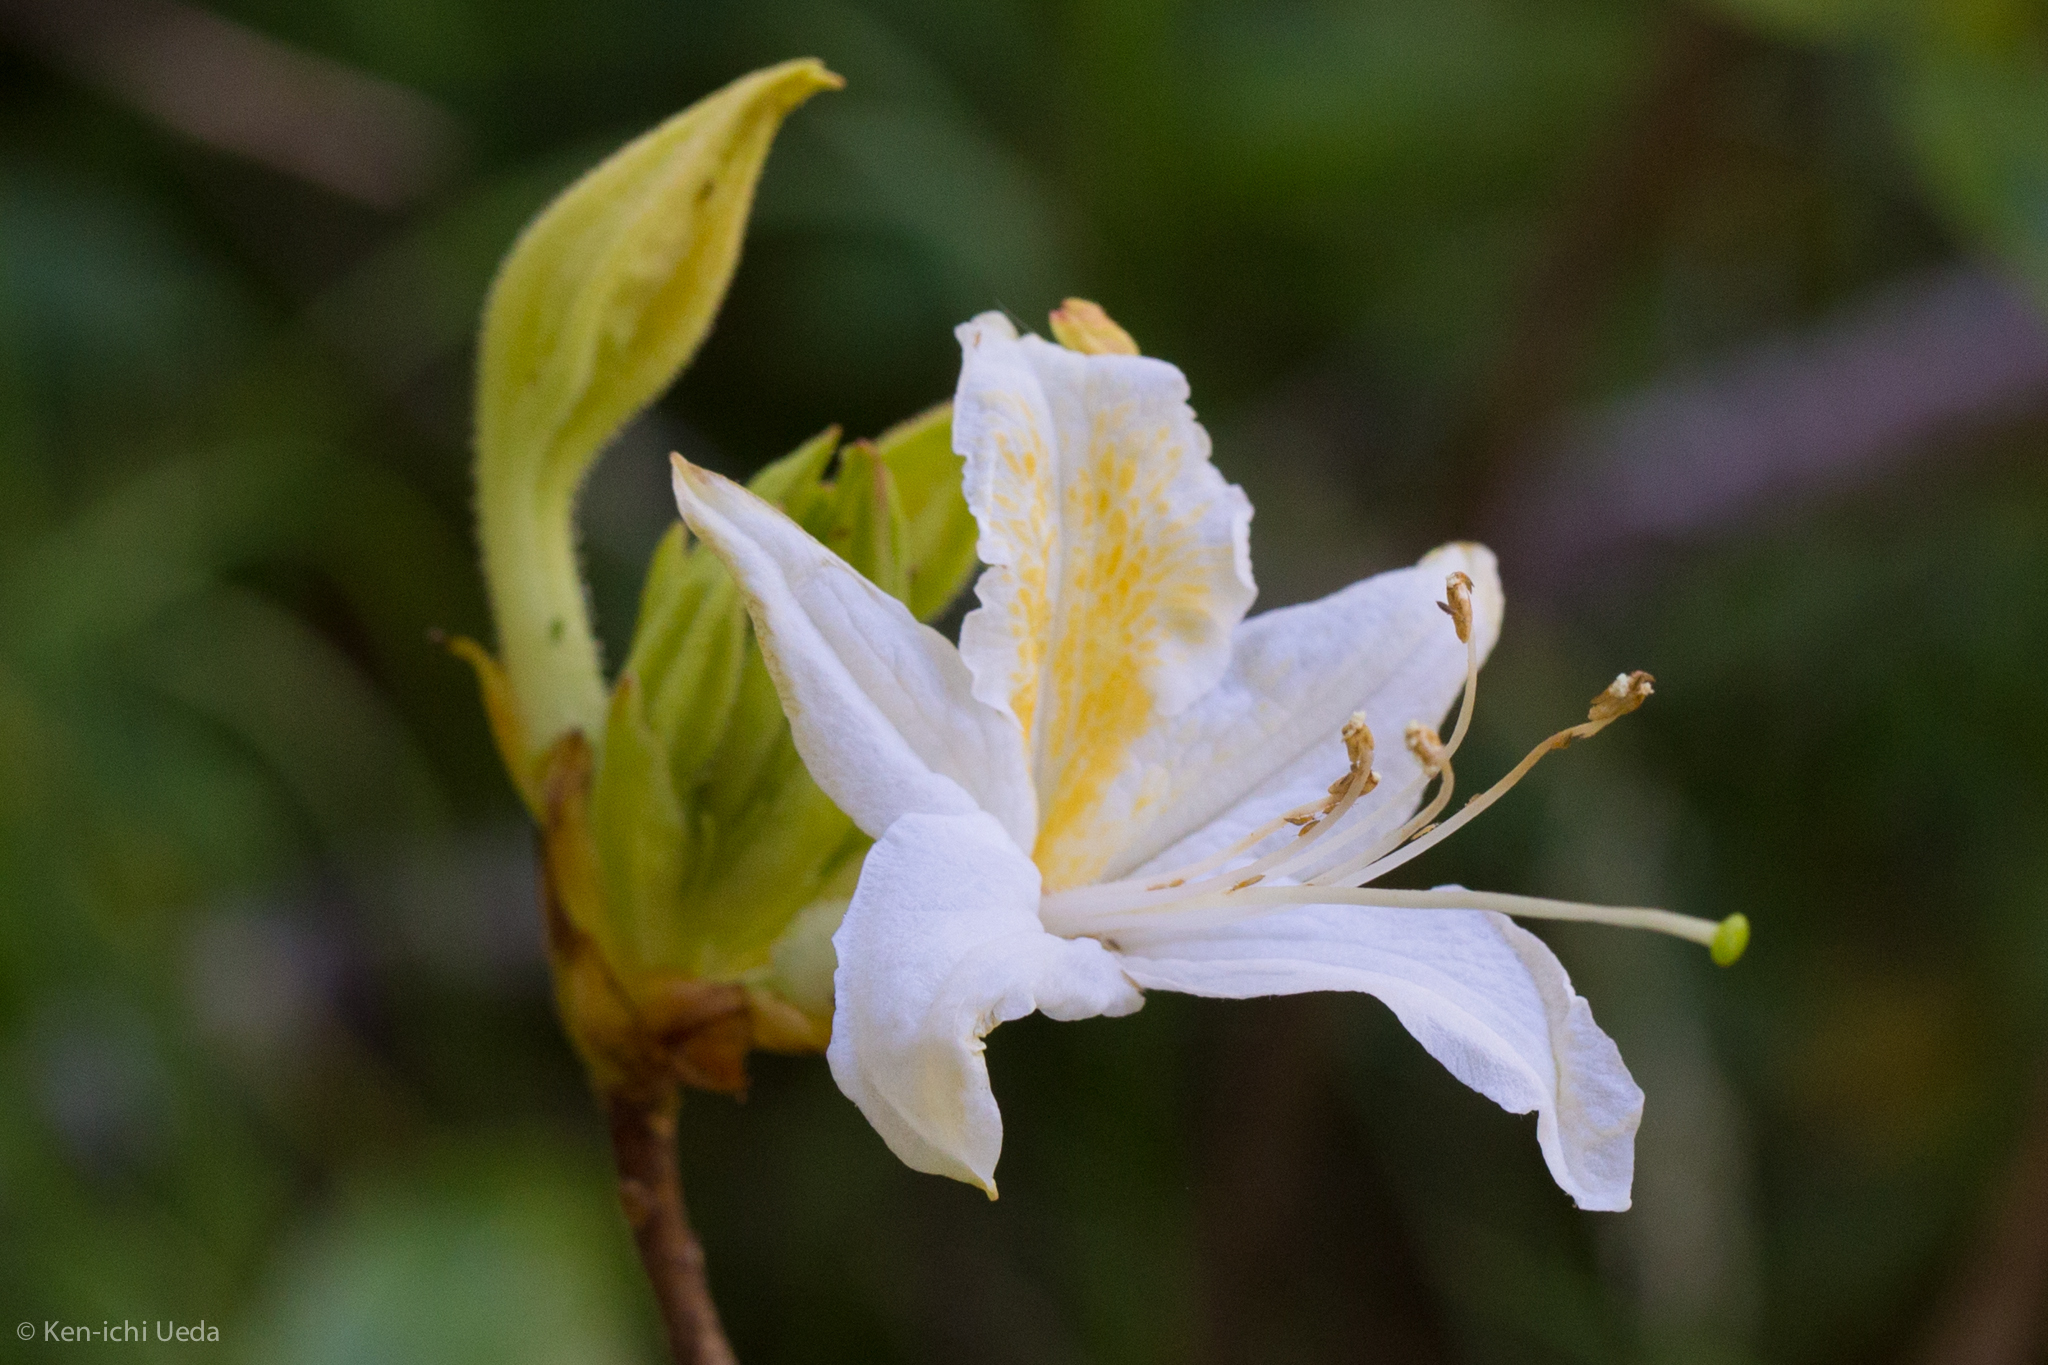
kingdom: Plantae
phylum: Tracheophyta
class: Magnoliopsida
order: Ericales
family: Ericaceae
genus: Rhododendron
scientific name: Rhododendron occidentale
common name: Western azalea
